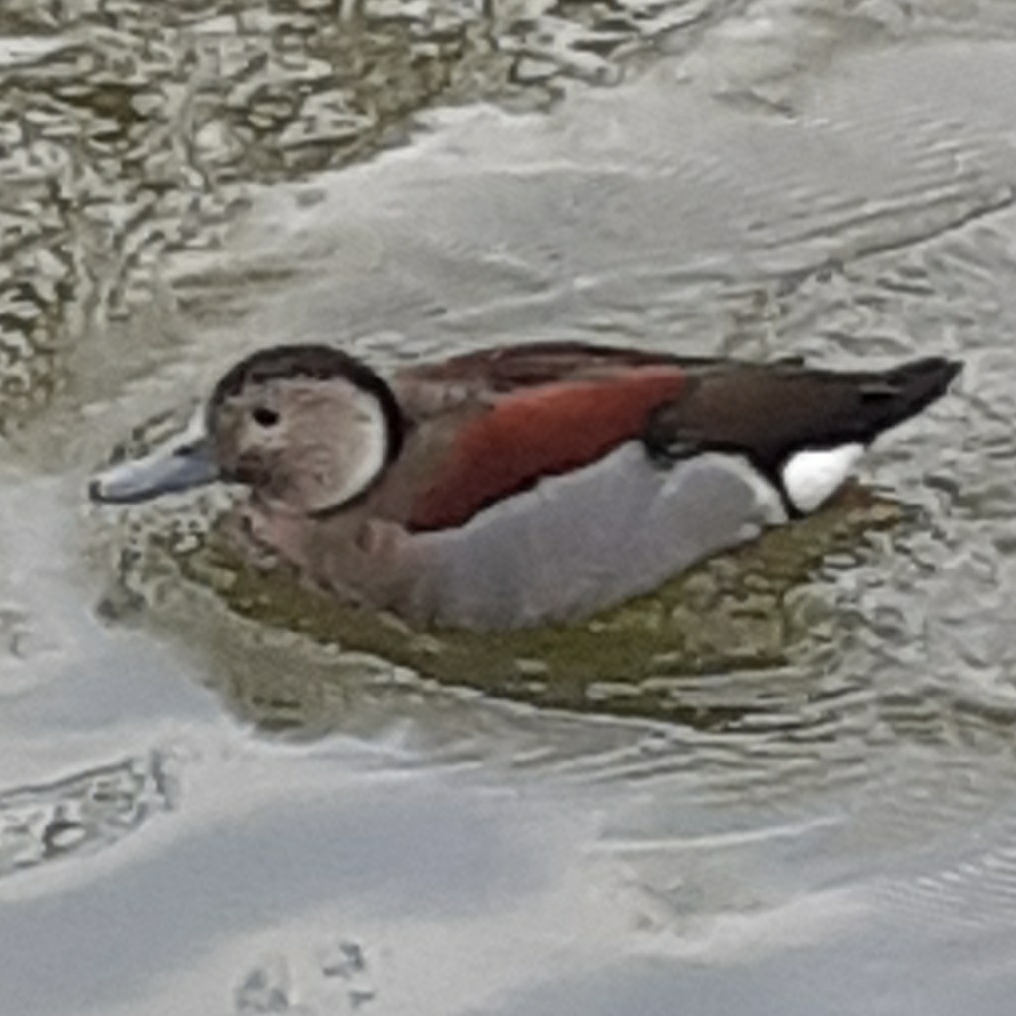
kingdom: Animalia
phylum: Chordata
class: Aves
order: Anseriformes
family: Anatidae
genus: Callonetta
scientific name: Callonetta leucophrys
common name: Ringed teal
